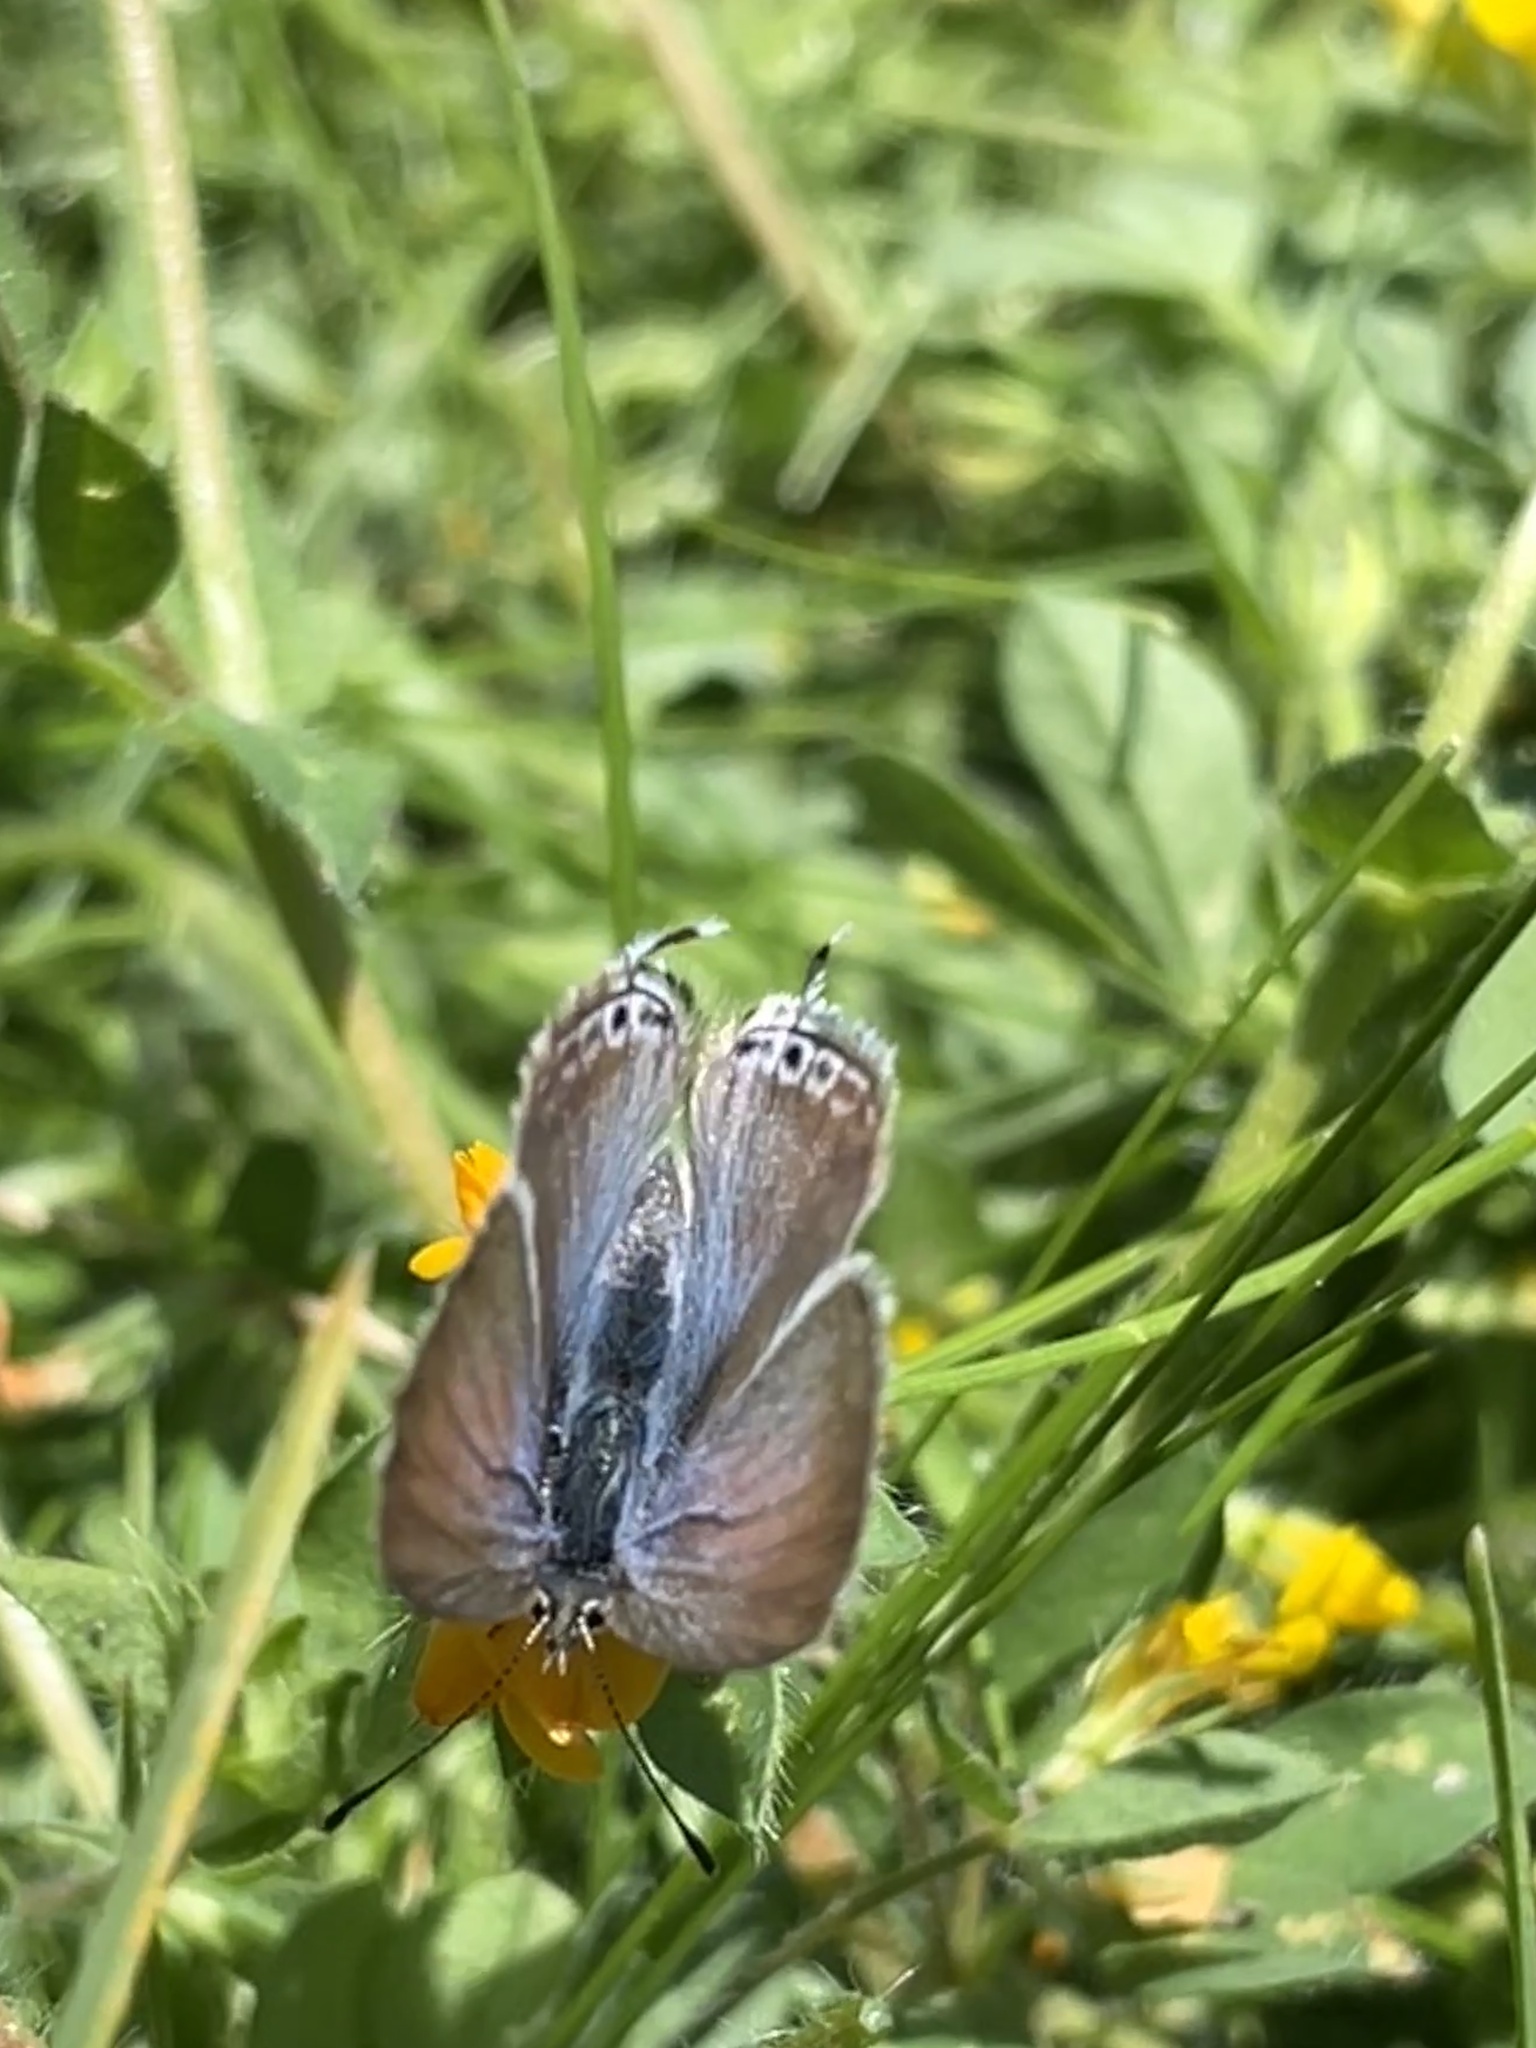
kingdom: Animalia
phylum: Arthropoda
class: Insecta
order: Lepidoptera
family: Lycaenidae
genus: Lampides
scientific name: Lampides boeticus
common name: Long-tailed blue
